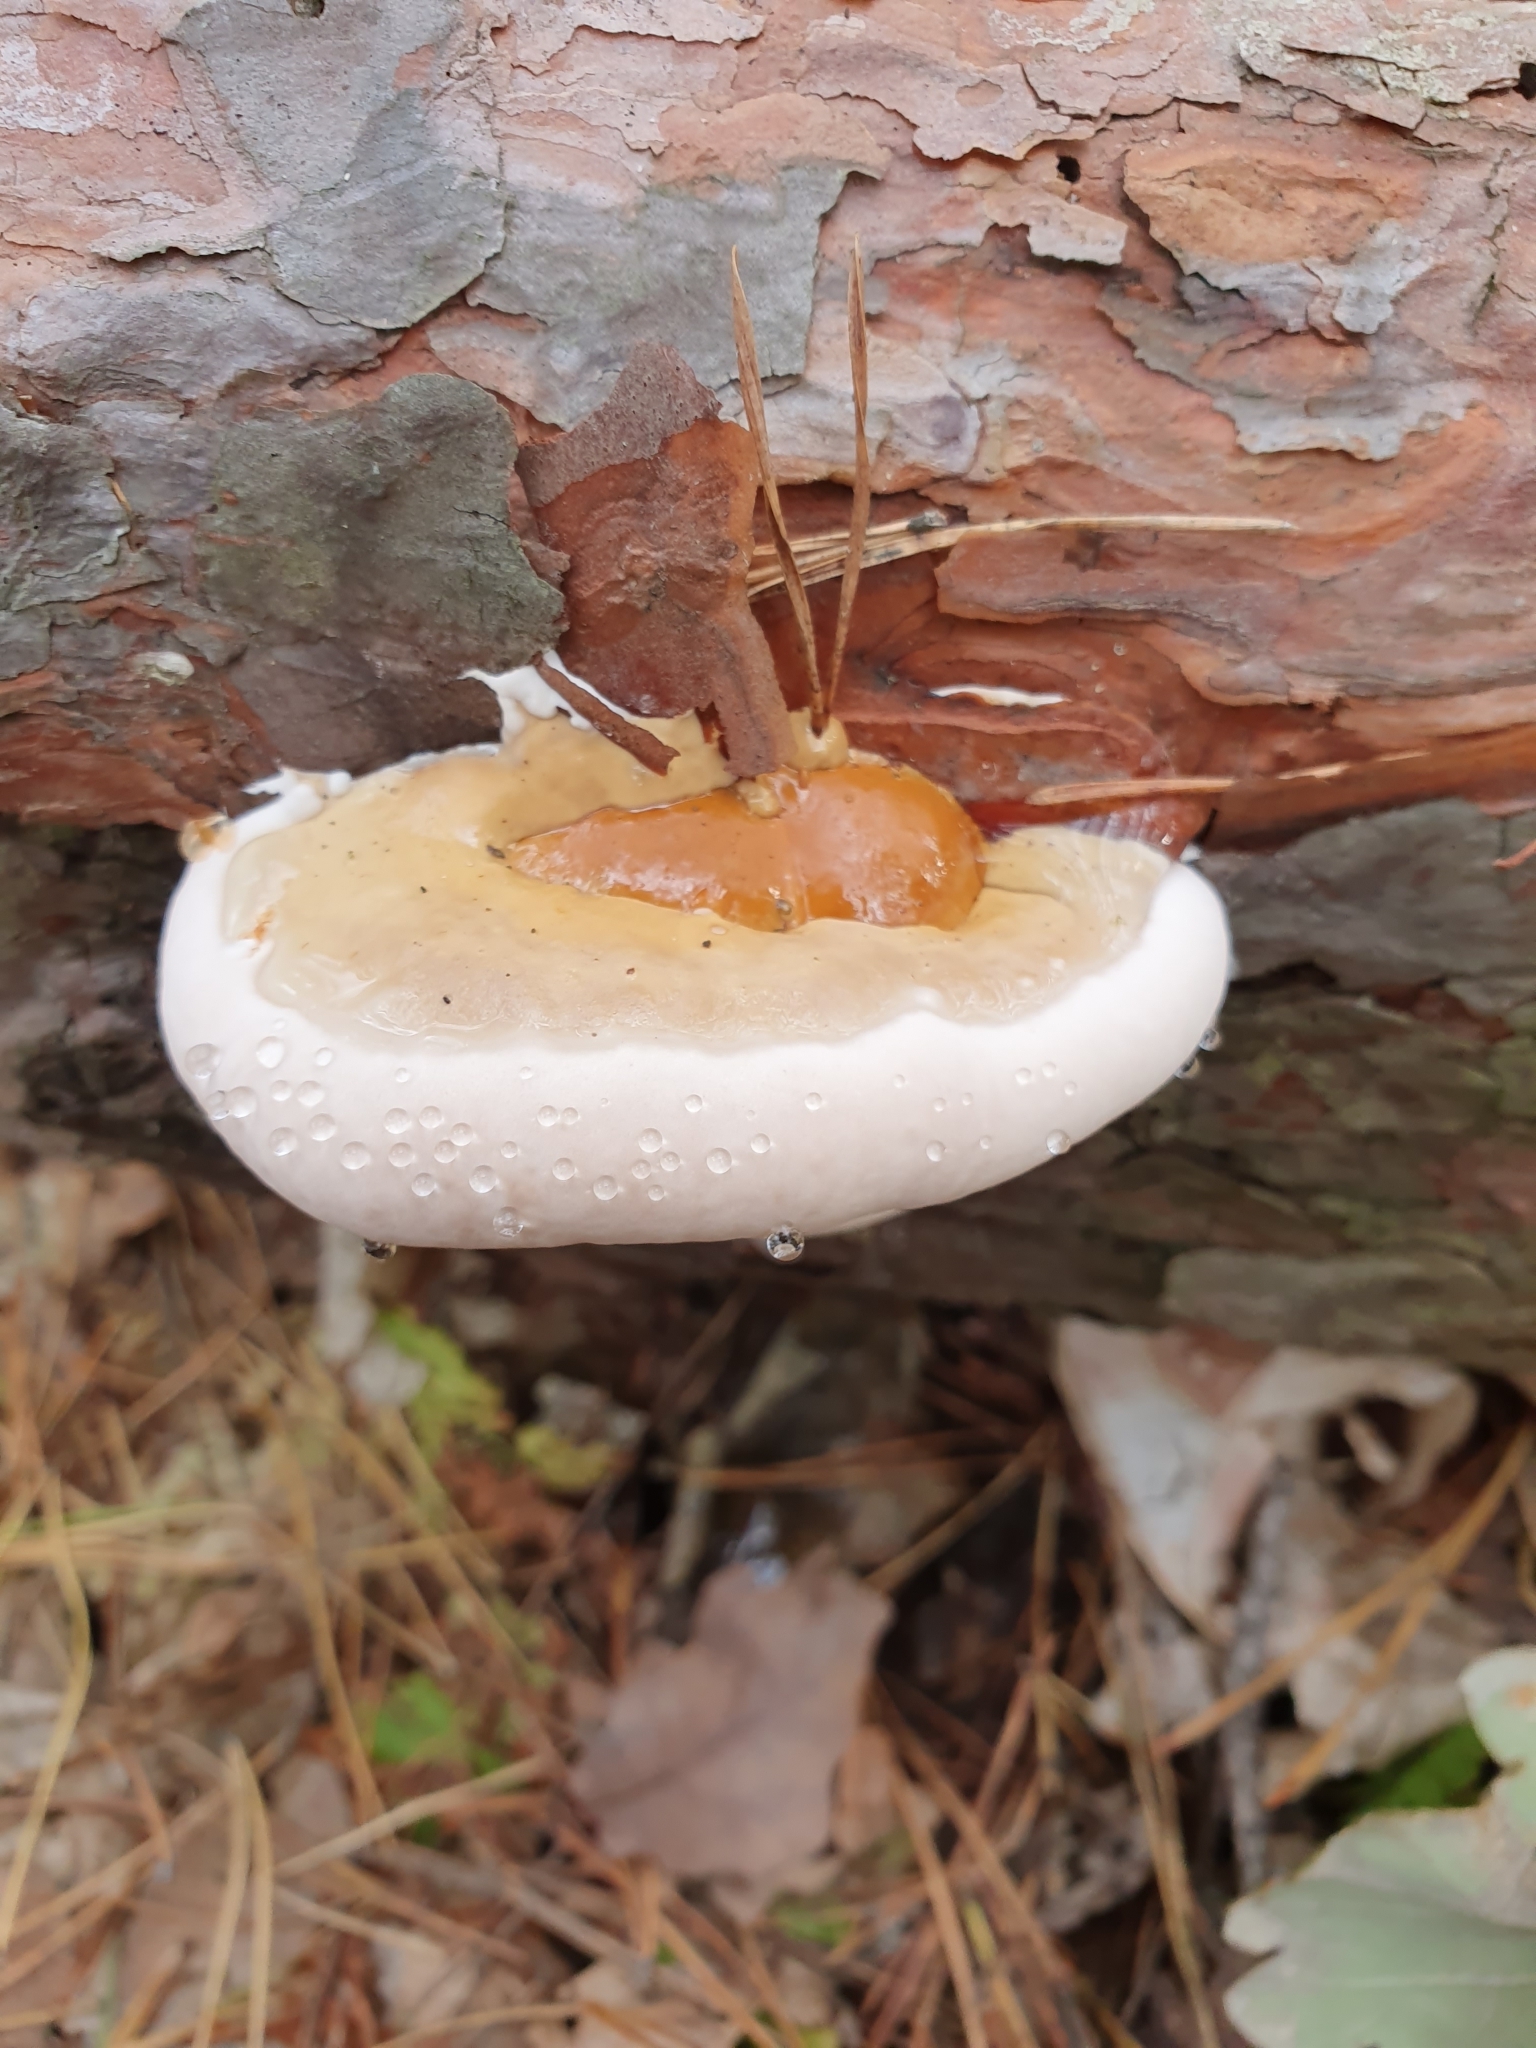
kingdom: Fungi
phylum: Basidiomycota
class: Agaricomycetes
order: Polyporales
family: Fomitopsidaceae
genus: Fomitopsis
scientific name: Fomitopsis pinicola
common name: Red-belted bracket
